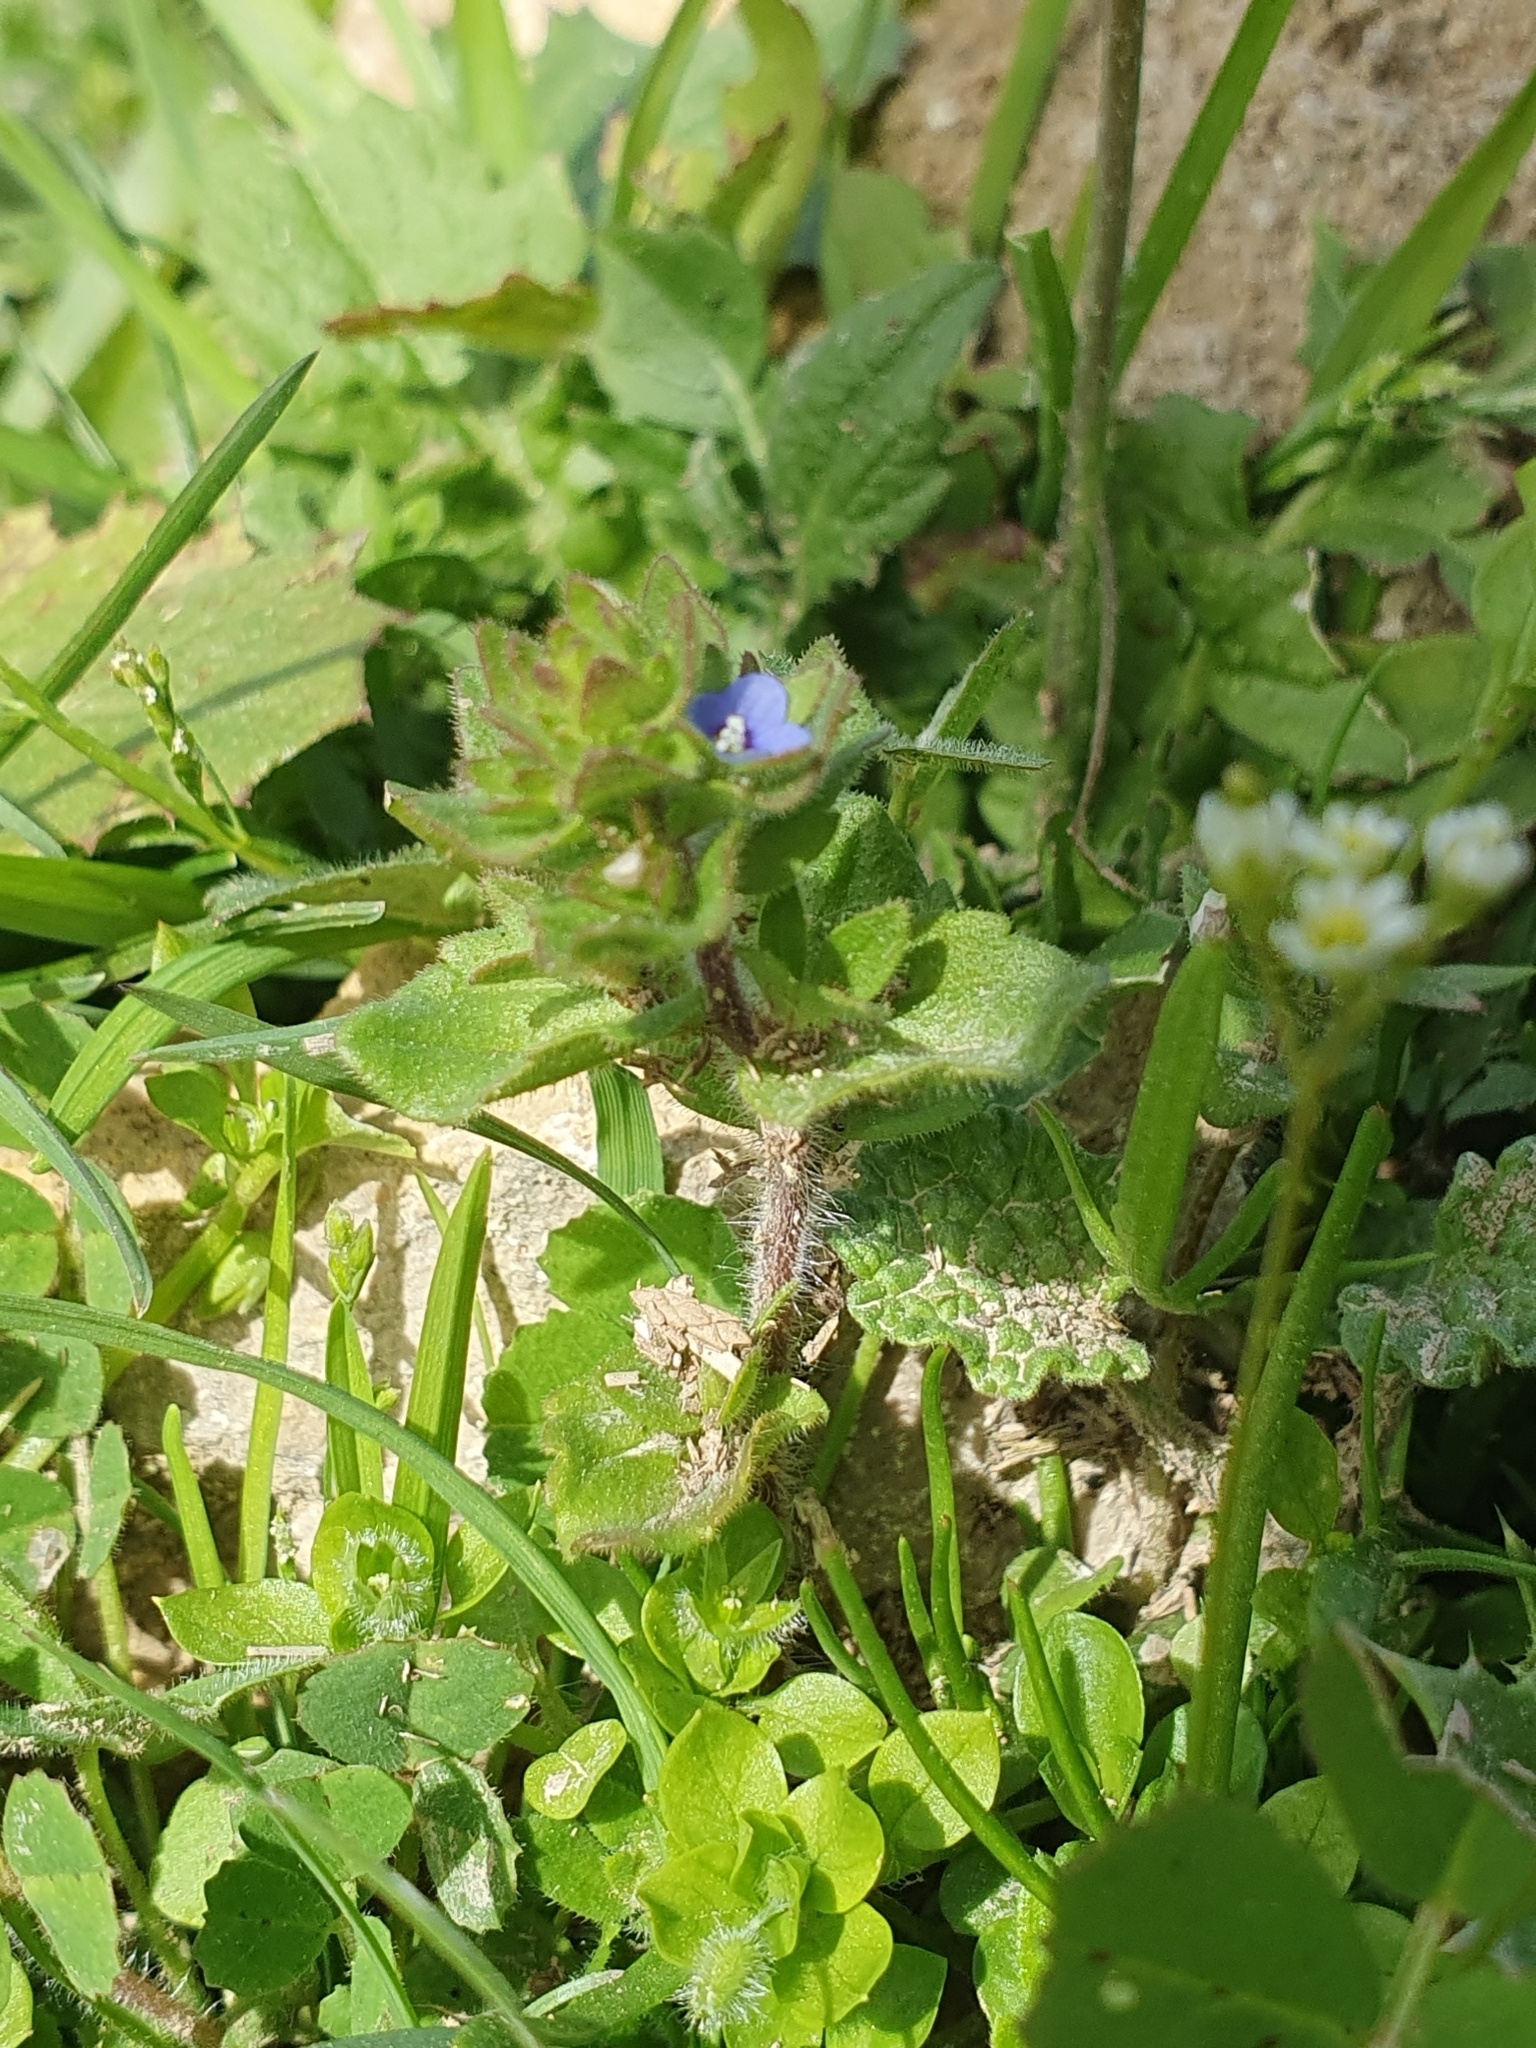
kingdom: Plantae
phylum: Tracheophyta
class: Magnoliopsida
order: Lamiales
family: Plantaginaceae
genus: Veronica
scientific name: Veronica arvensis
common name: Corn speedwell
